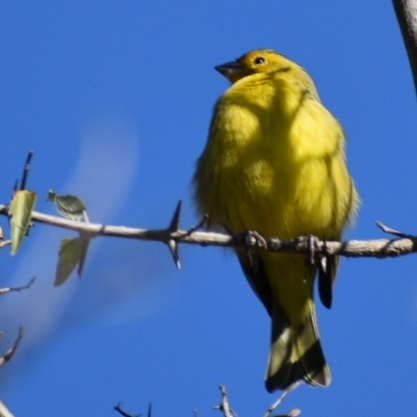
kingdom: Animalia
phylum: Chordata
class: Aves
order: Passeriformes
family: Thraupidae
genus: Sicalis
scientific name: Sicalis flaveola
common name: Saffron finch
